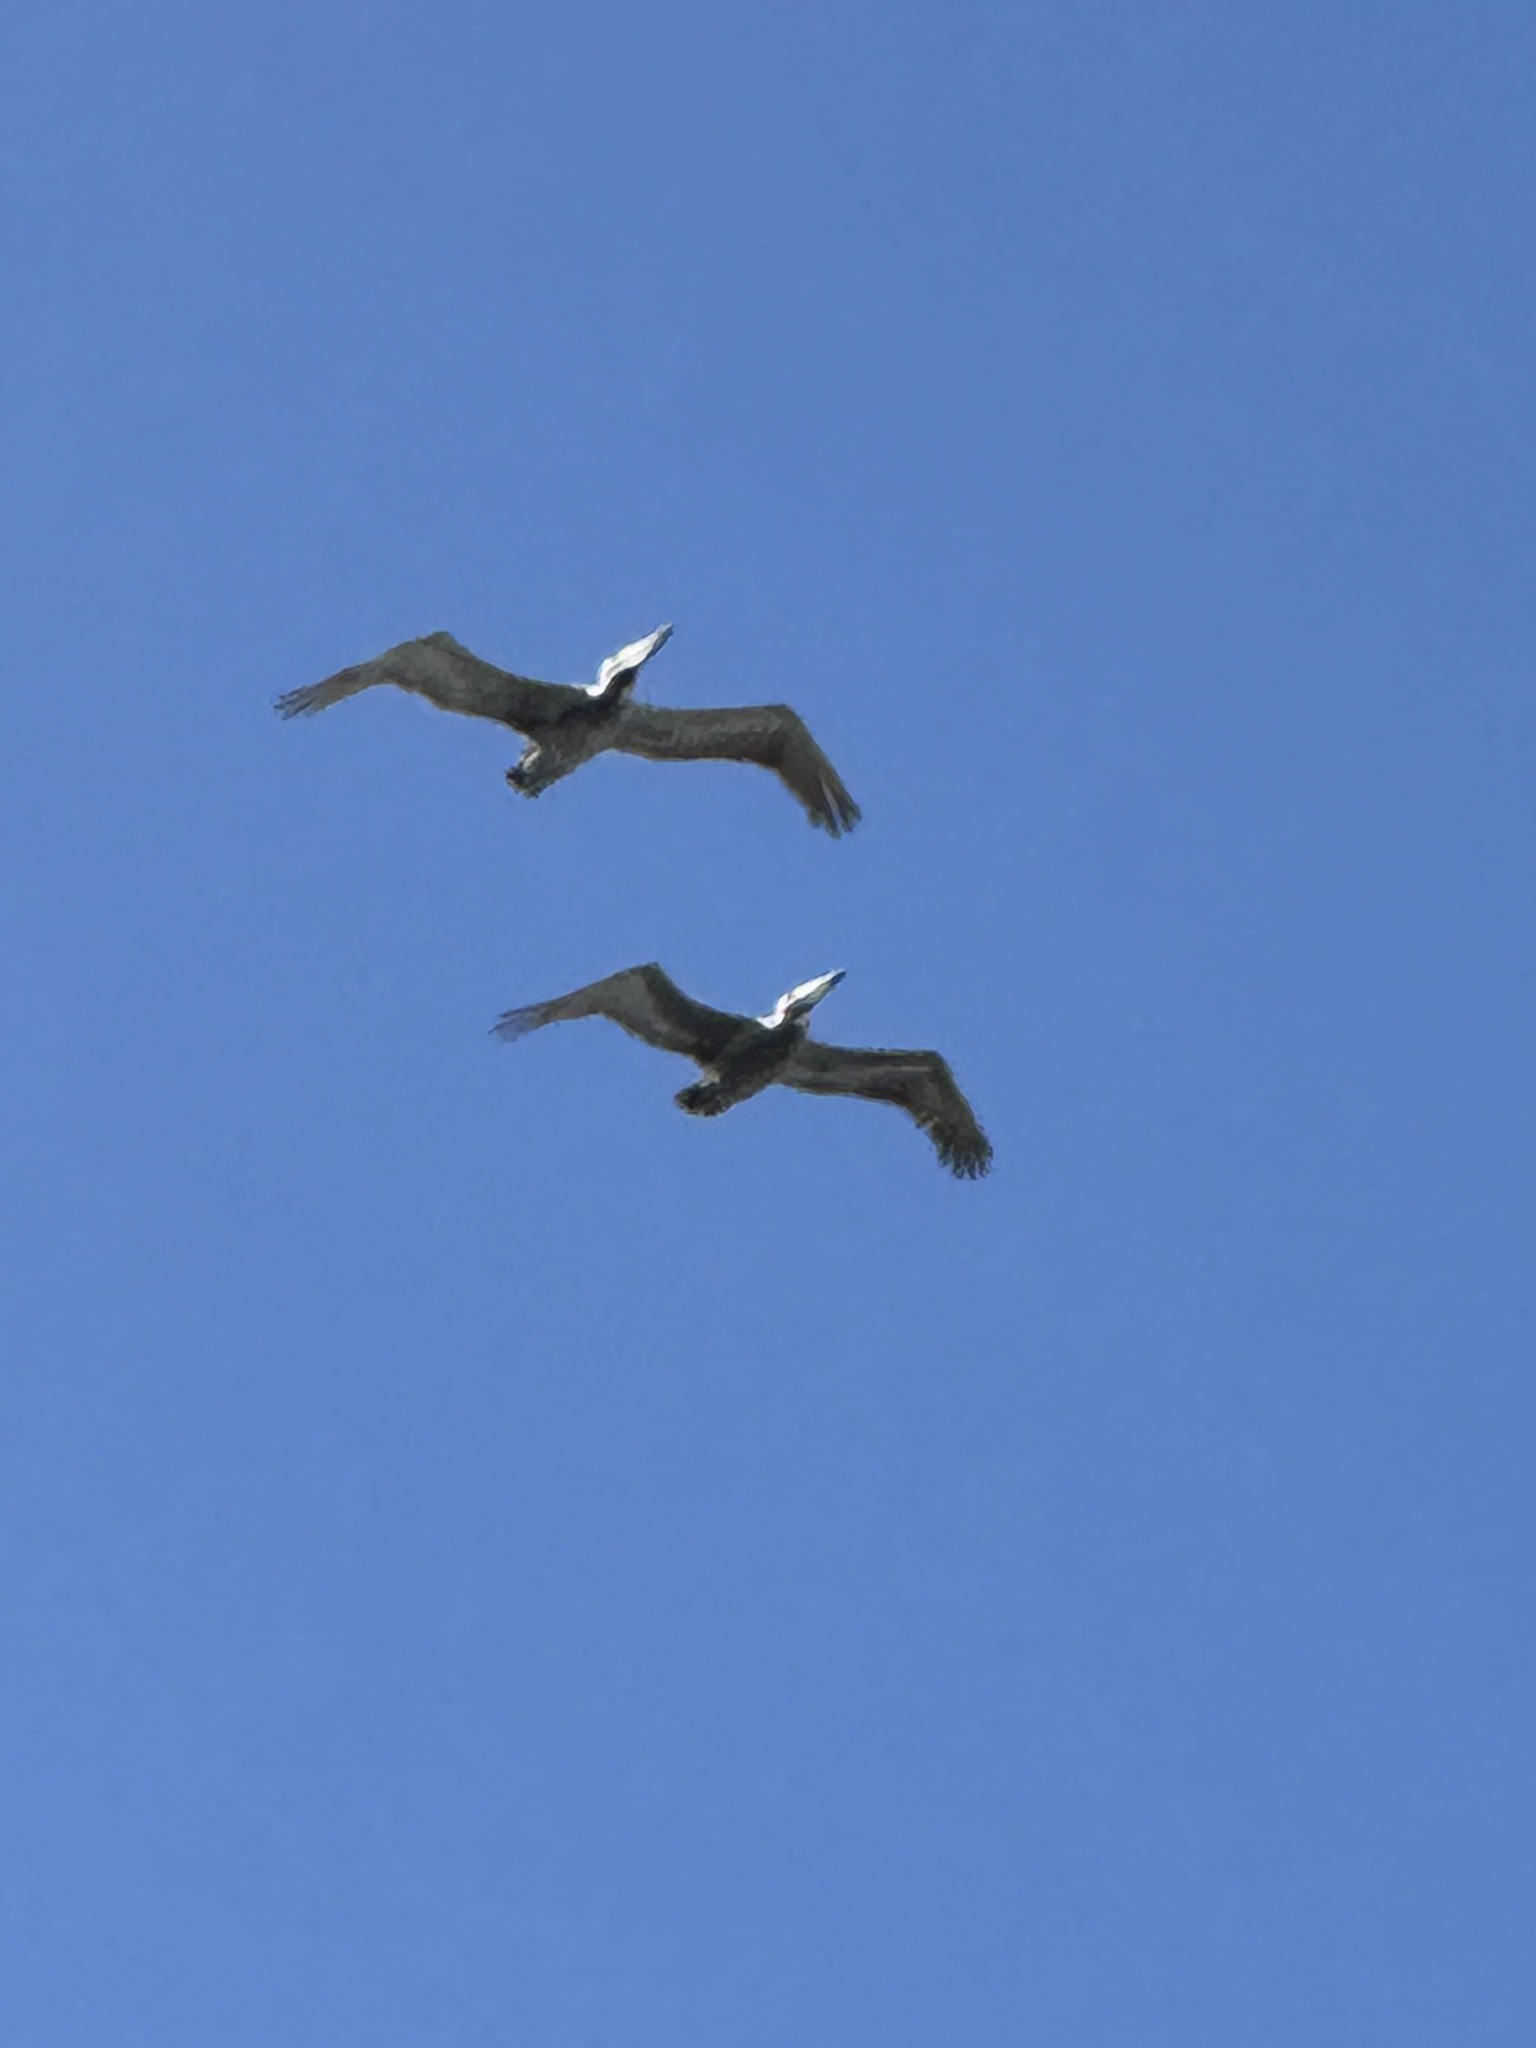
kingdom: Animalia
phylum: Chordata
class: Aves
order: Pelecaniformes
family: Pelecanidae
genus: Pelecanus
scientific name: Pelecanus occidentalis
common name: Brown pelican
